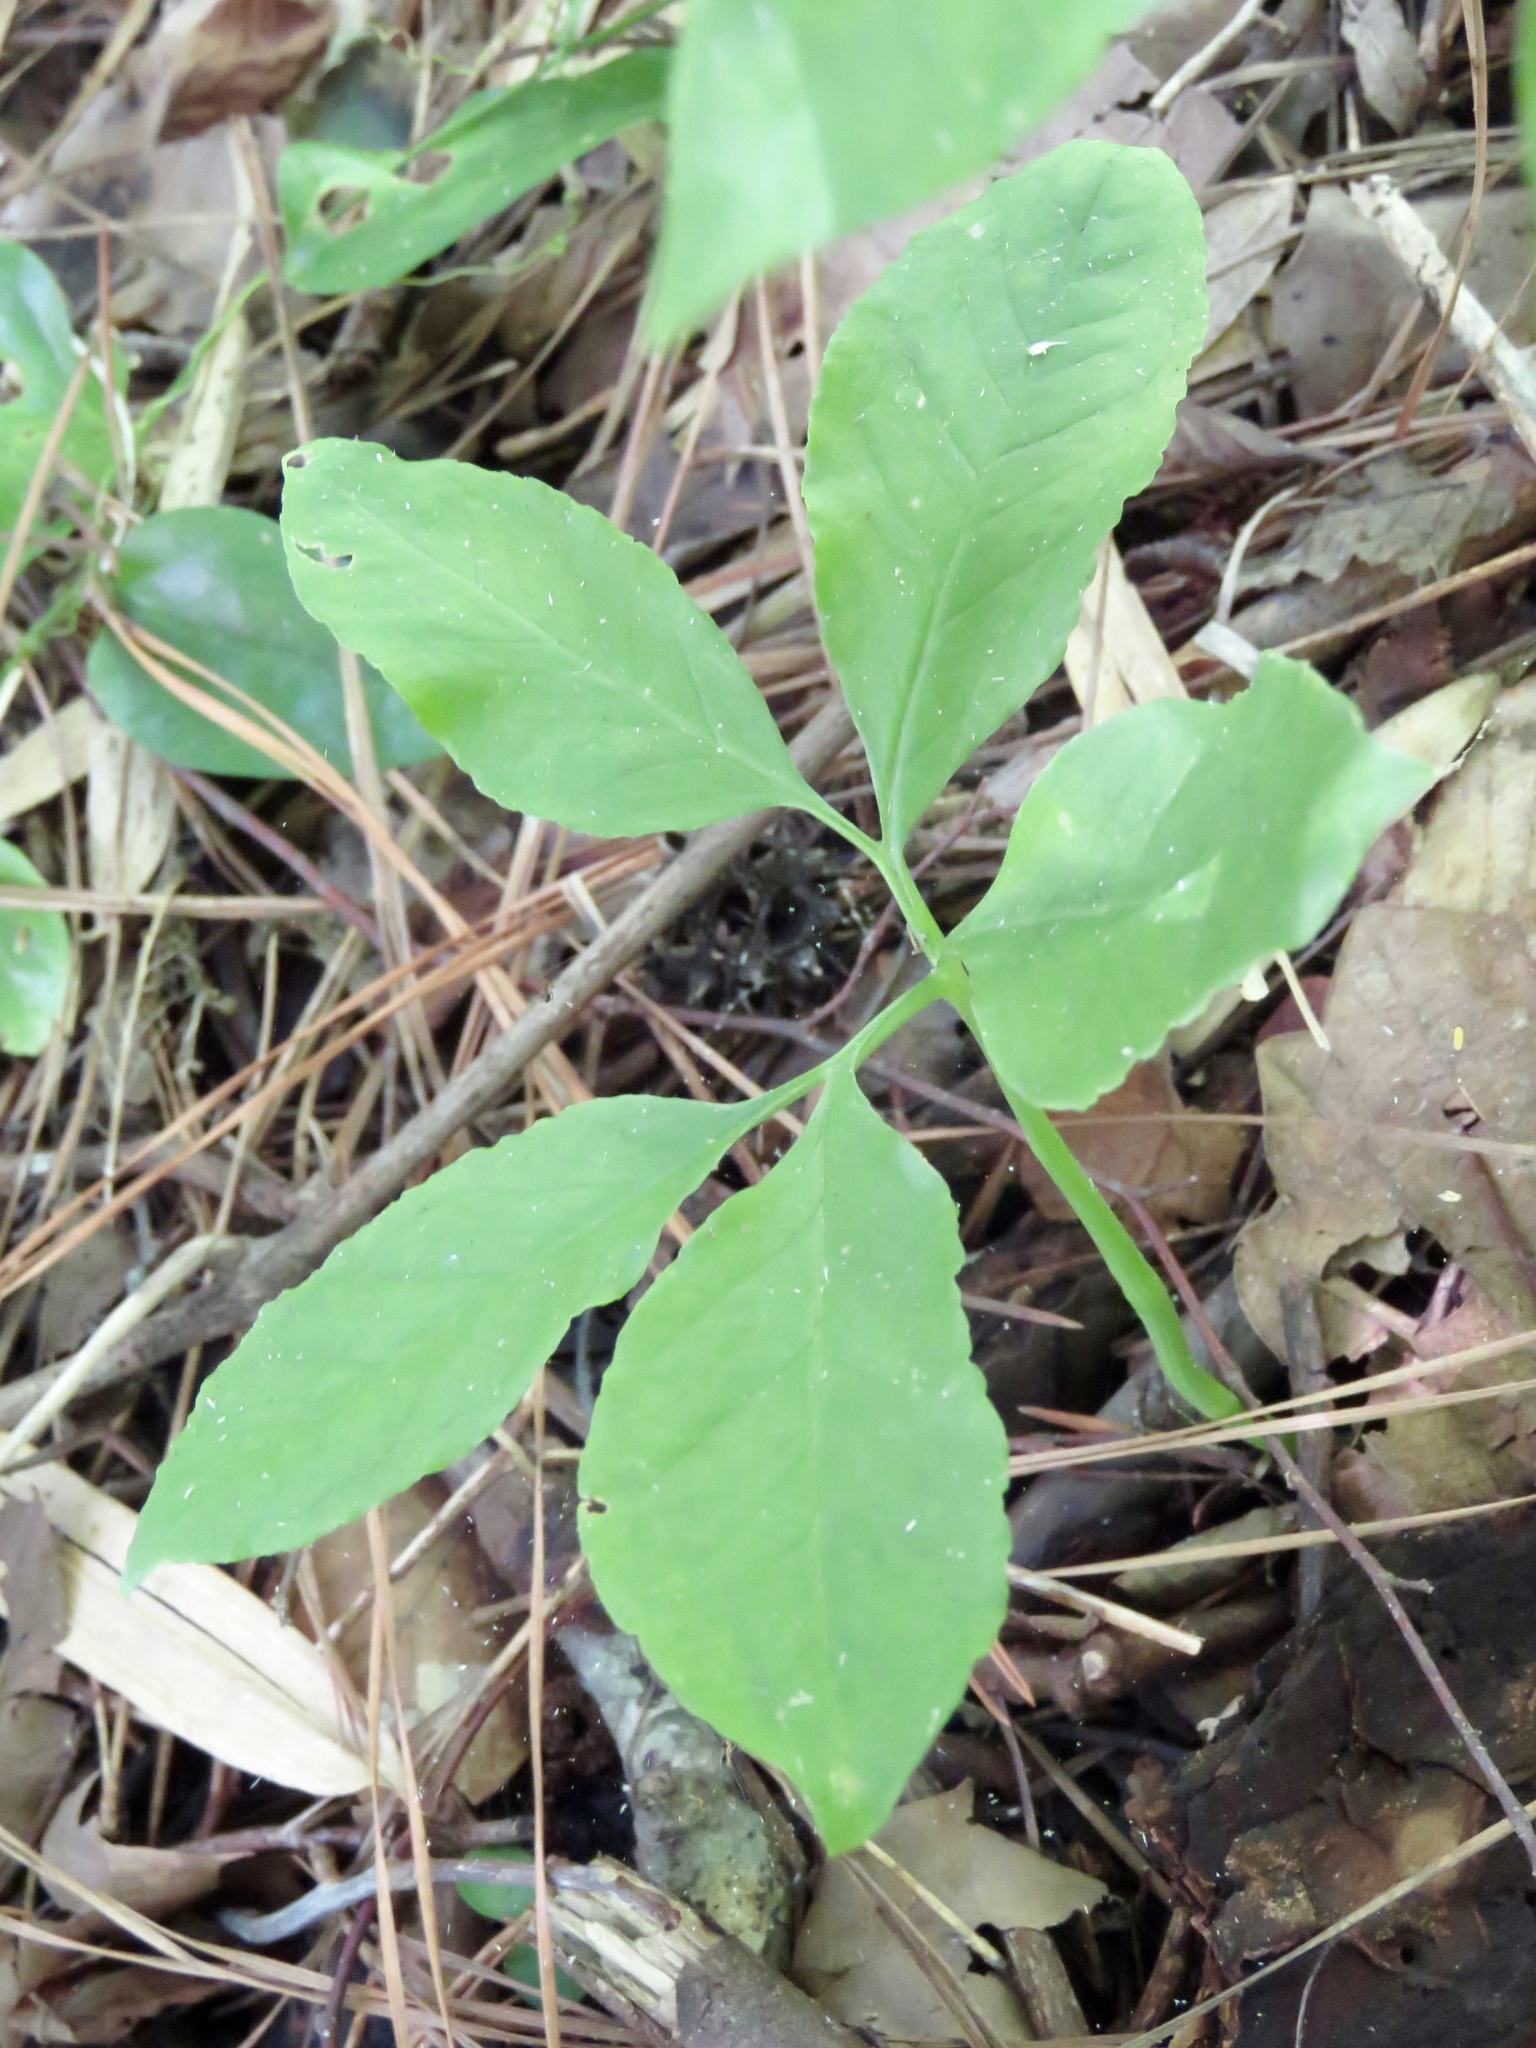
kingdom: Plantae
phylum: Tracheophyta
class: Liliopsida
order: Alismatales
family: Araceae
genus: Arisaema
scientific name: Arisaema dracontium
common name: Dragon-arum
